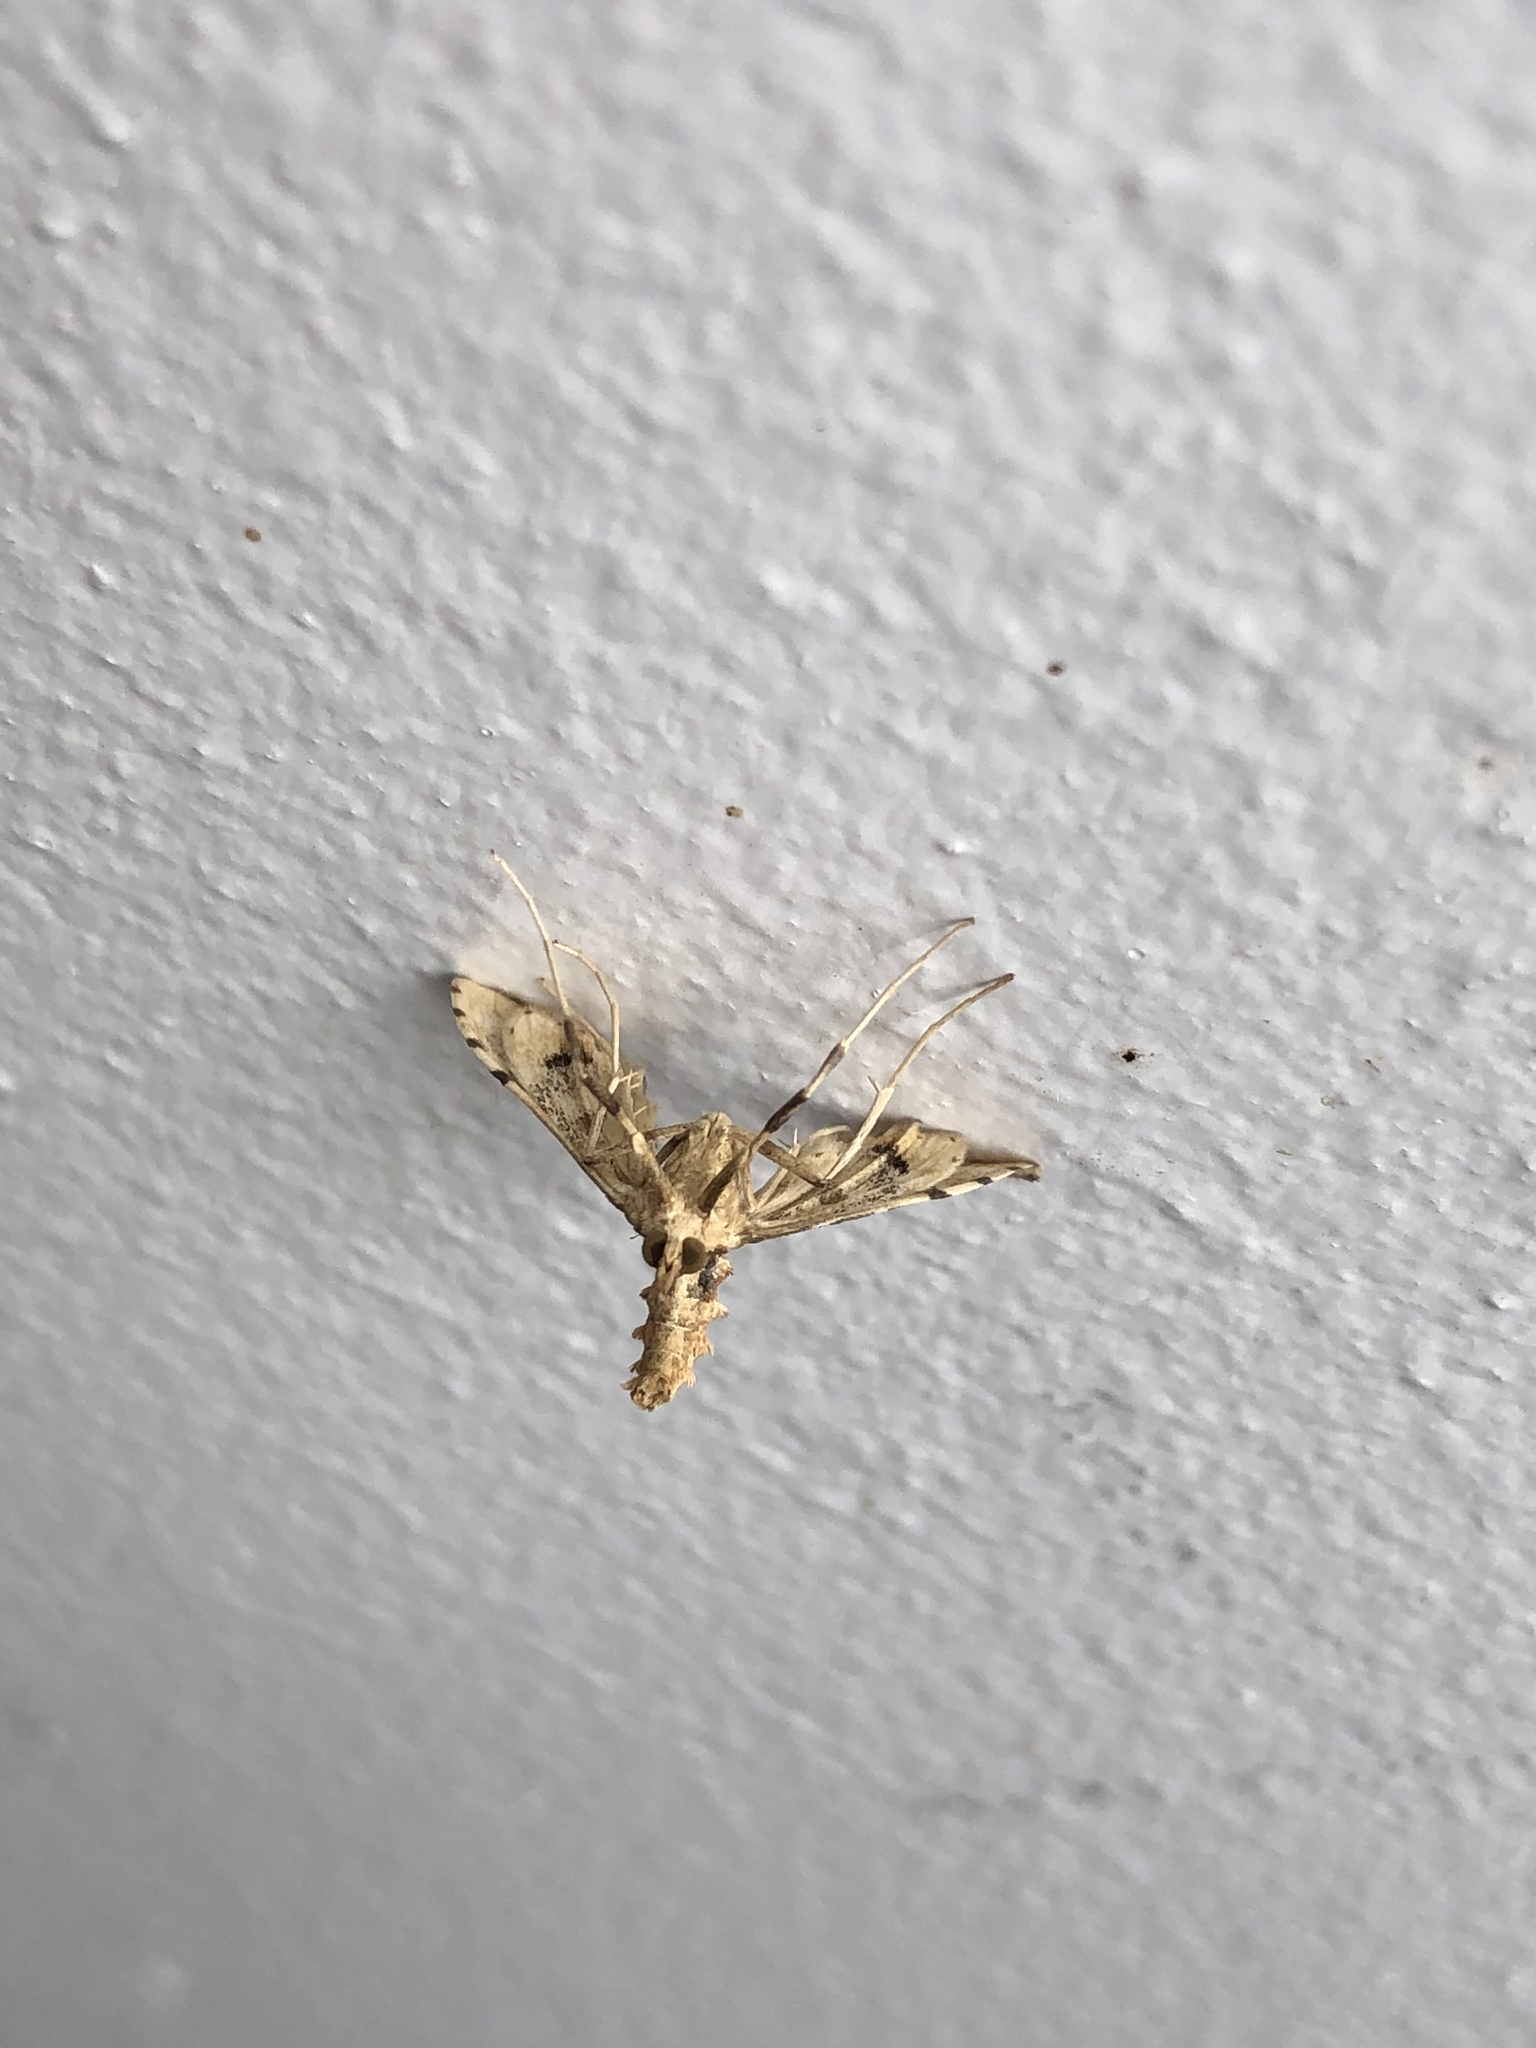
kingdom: Animalia
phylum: Arthropoda
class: Insecta
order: Lepidoptera
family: Crambidae
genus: Sceliodes
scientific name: Sceliodes cordalis
